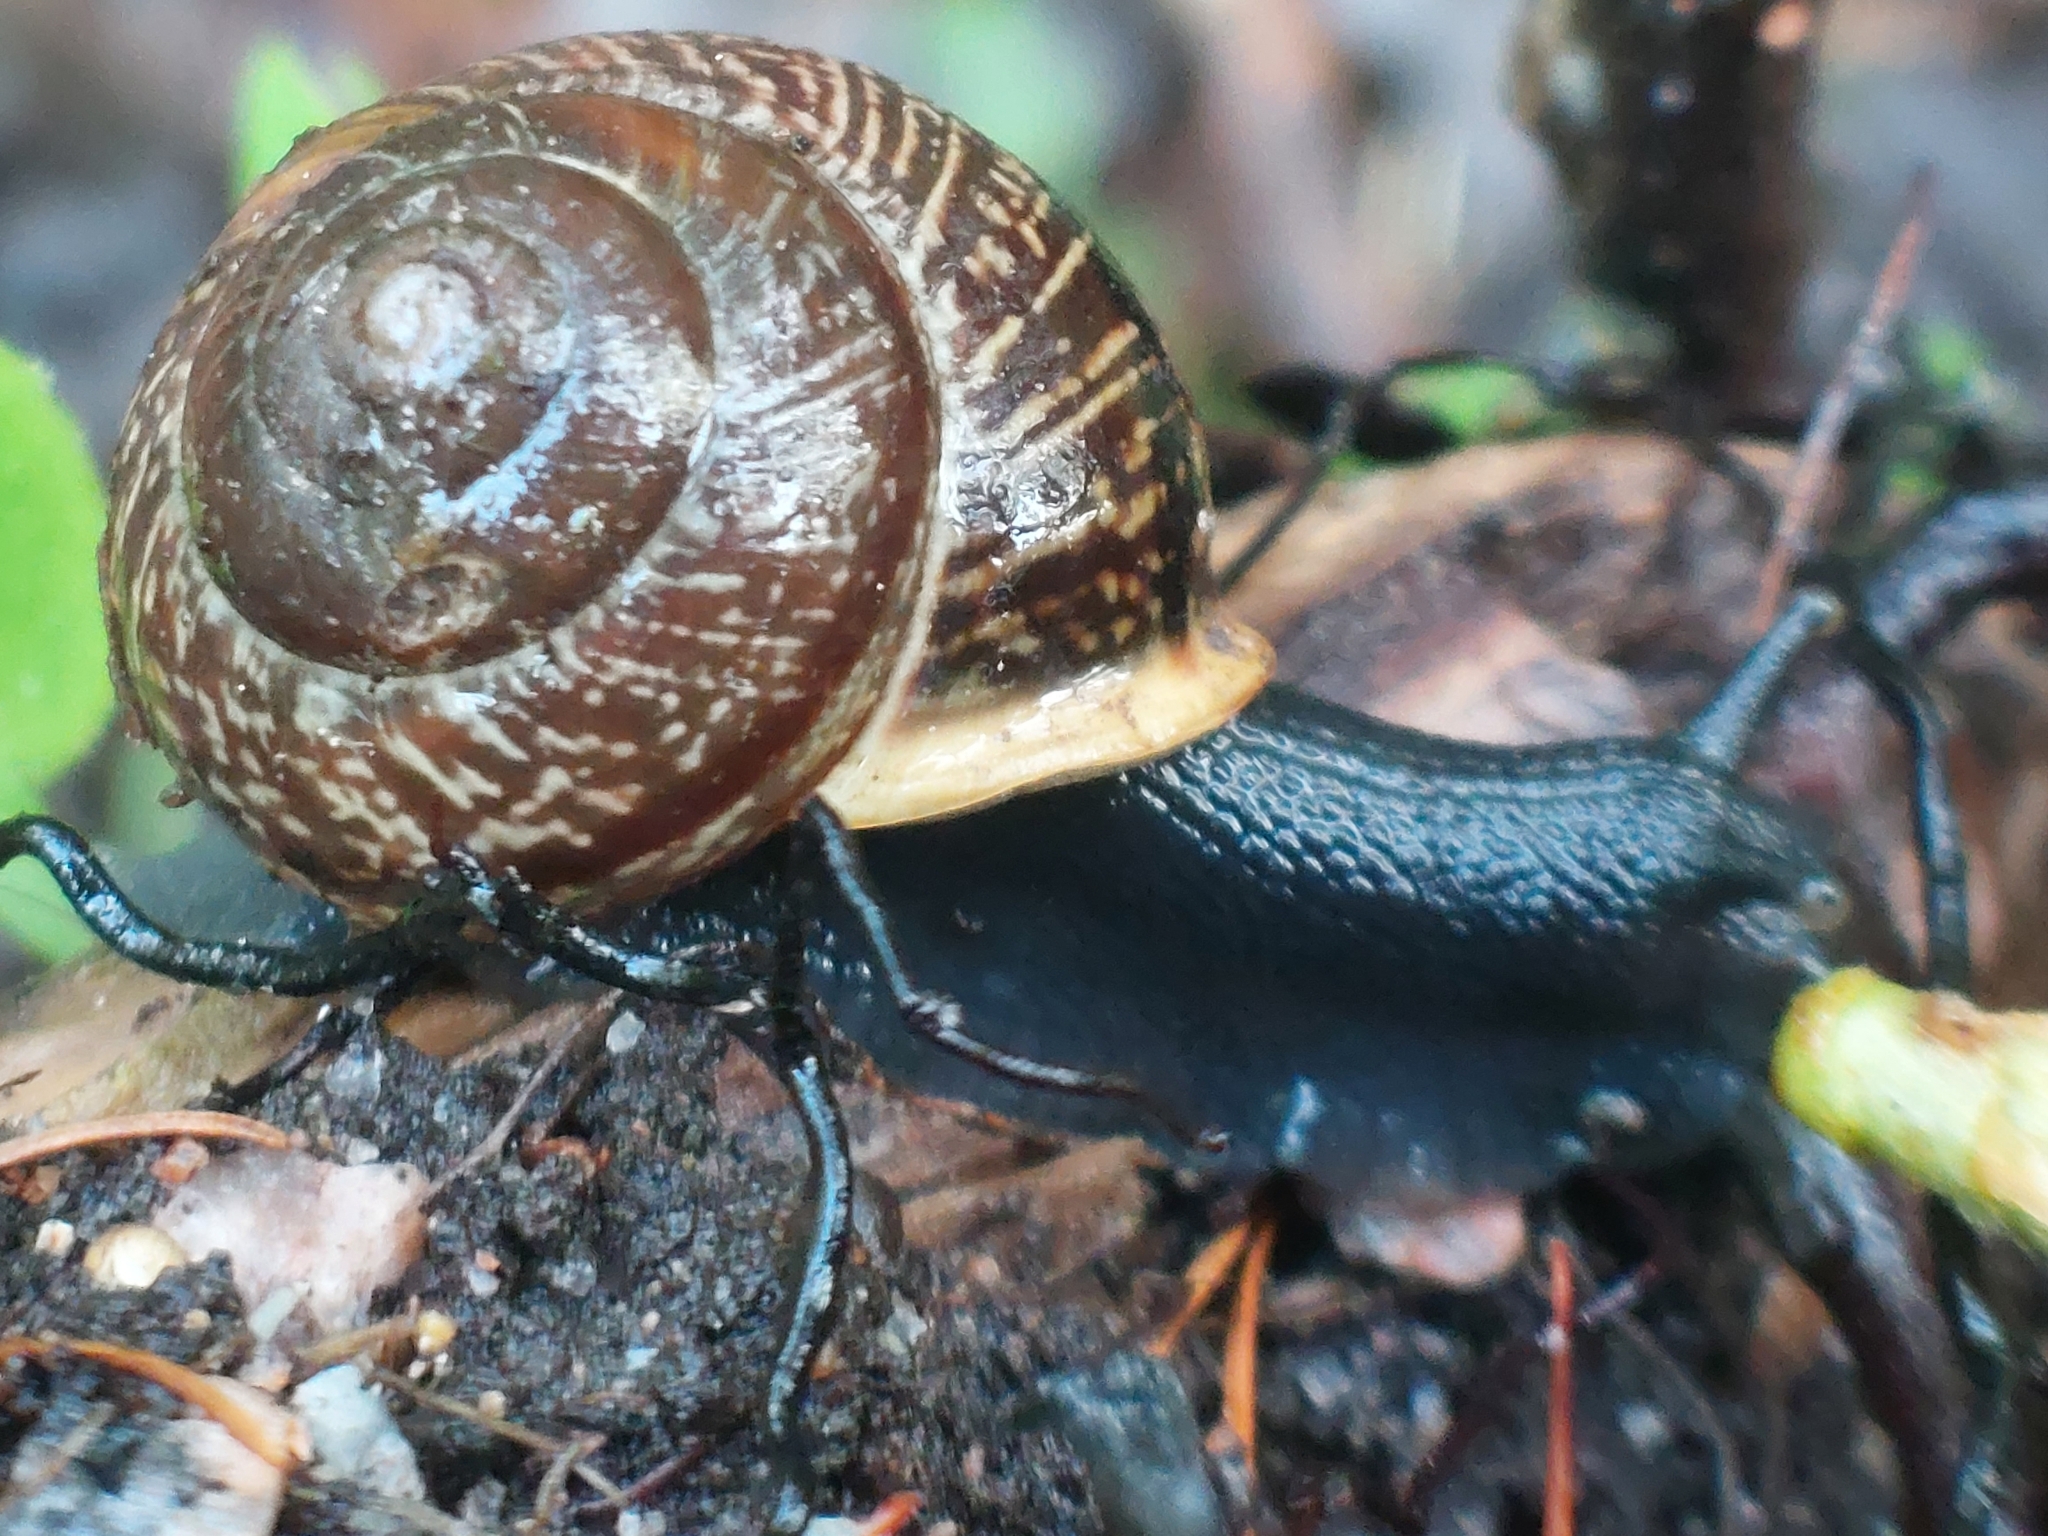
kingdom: Animalia
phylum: Mollusca
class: Gastropoda
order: Stylommatophora
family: Helicidae
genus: Arianta
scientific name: Arianta arbustorum
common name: Copse snail
